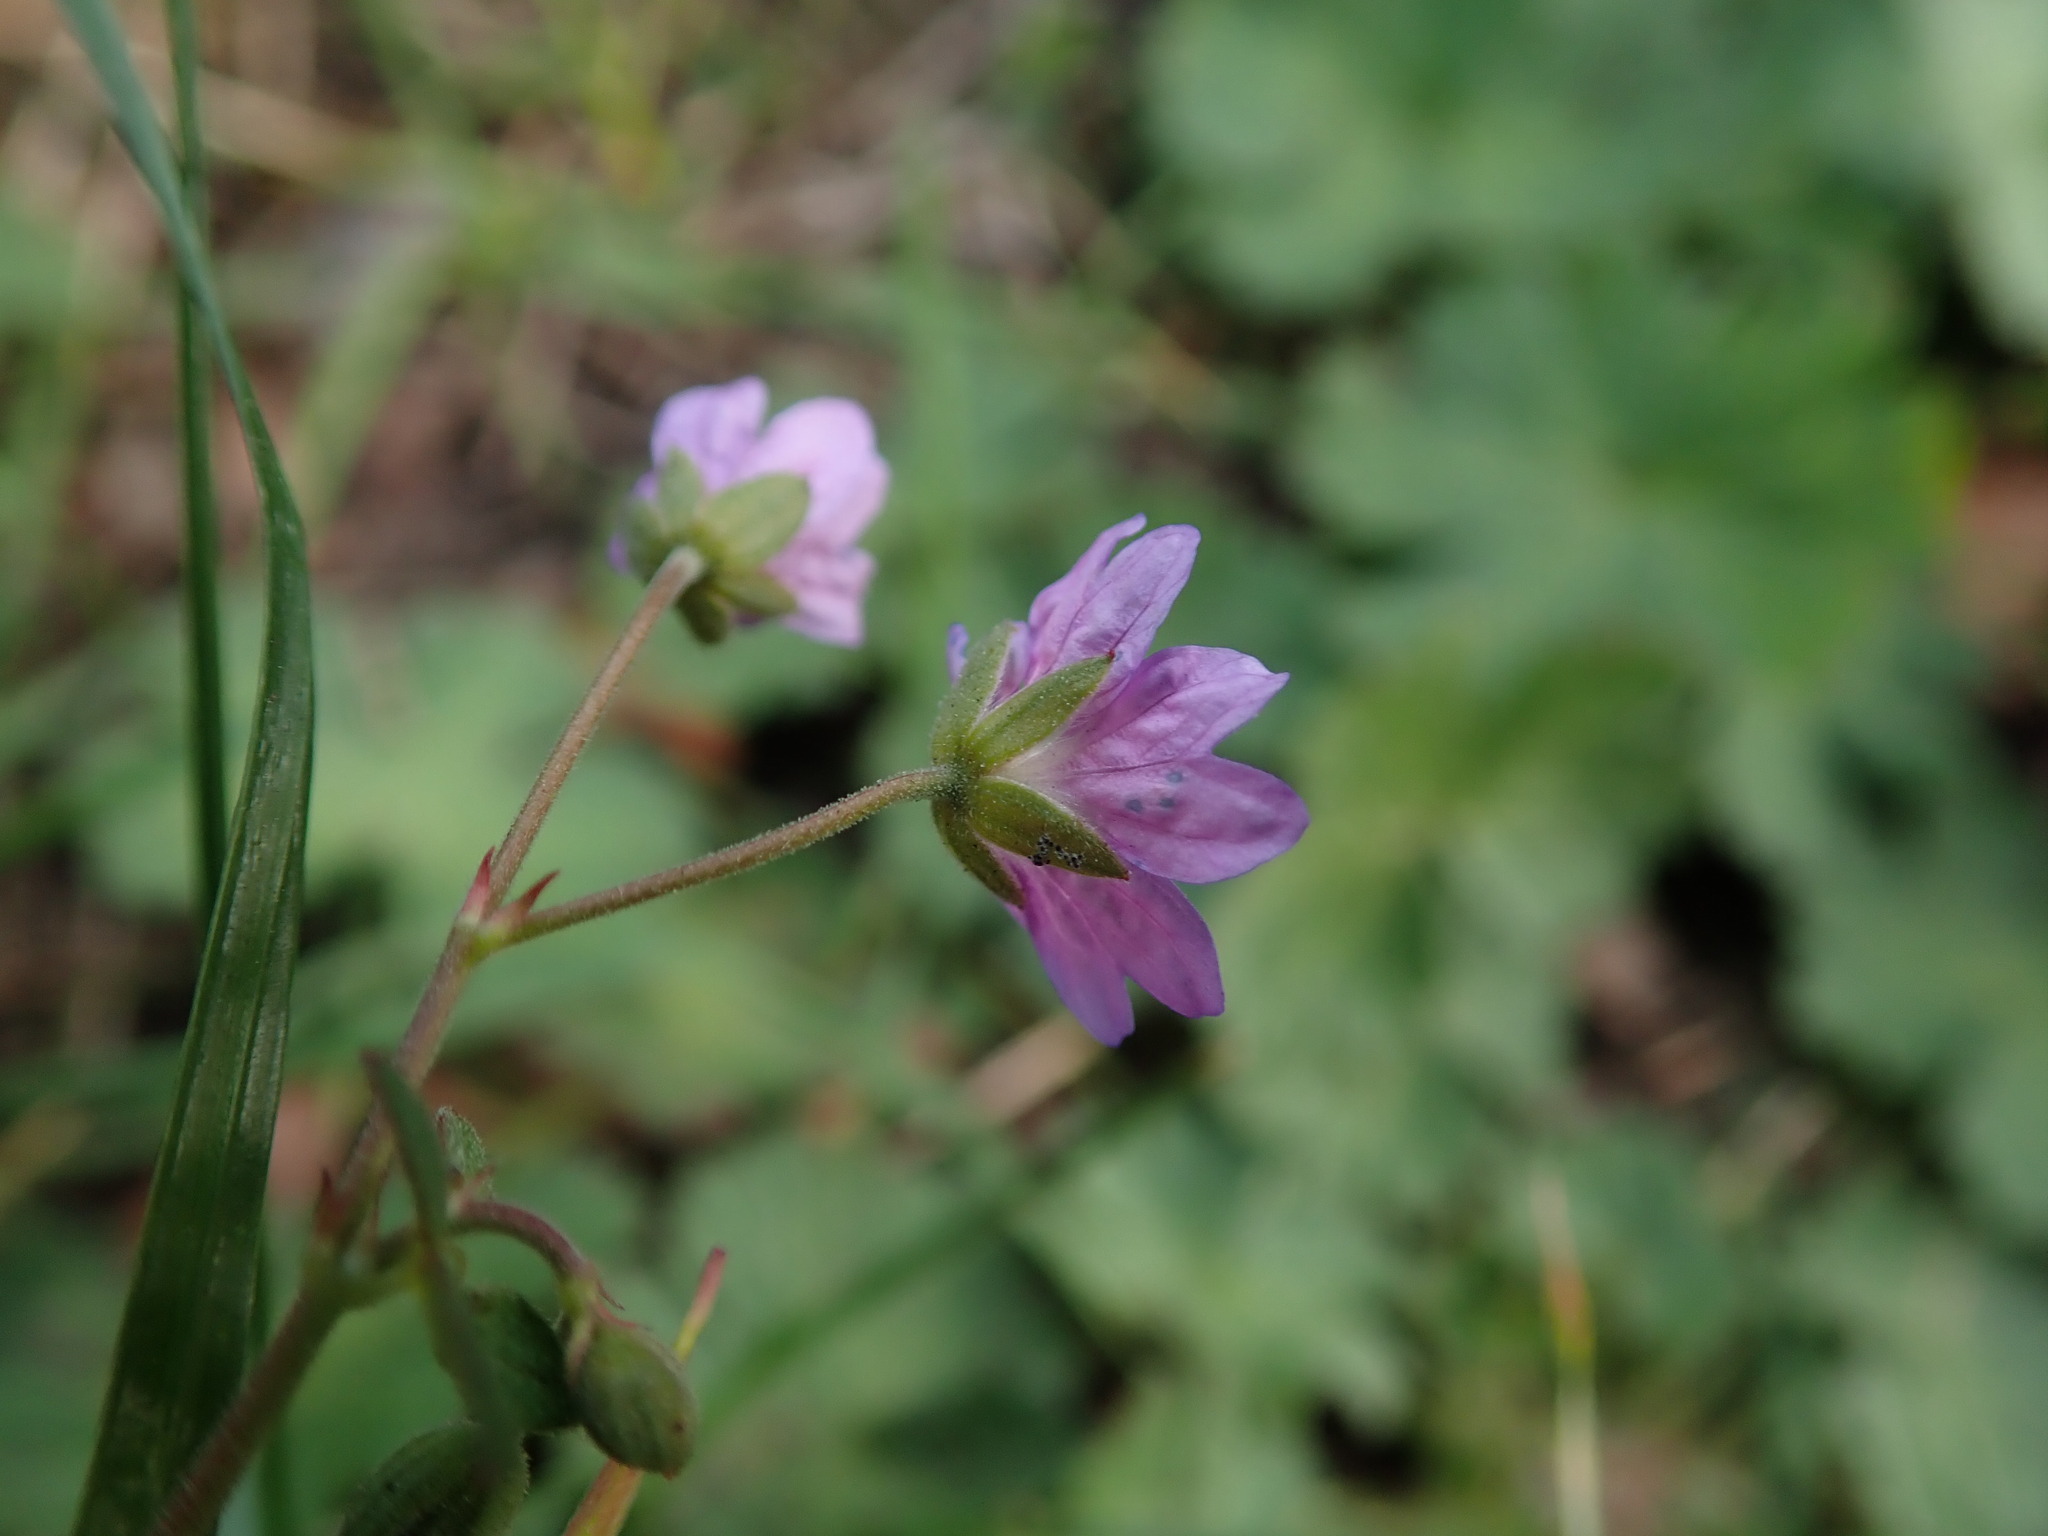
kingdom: Plantae
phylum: Tracheophyta
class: Magnoliopsida
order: Geraniales
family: Geraniaceae
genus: Geranium
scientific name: Geranium pyrenaicum
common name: Hedgerow crane's-bill
